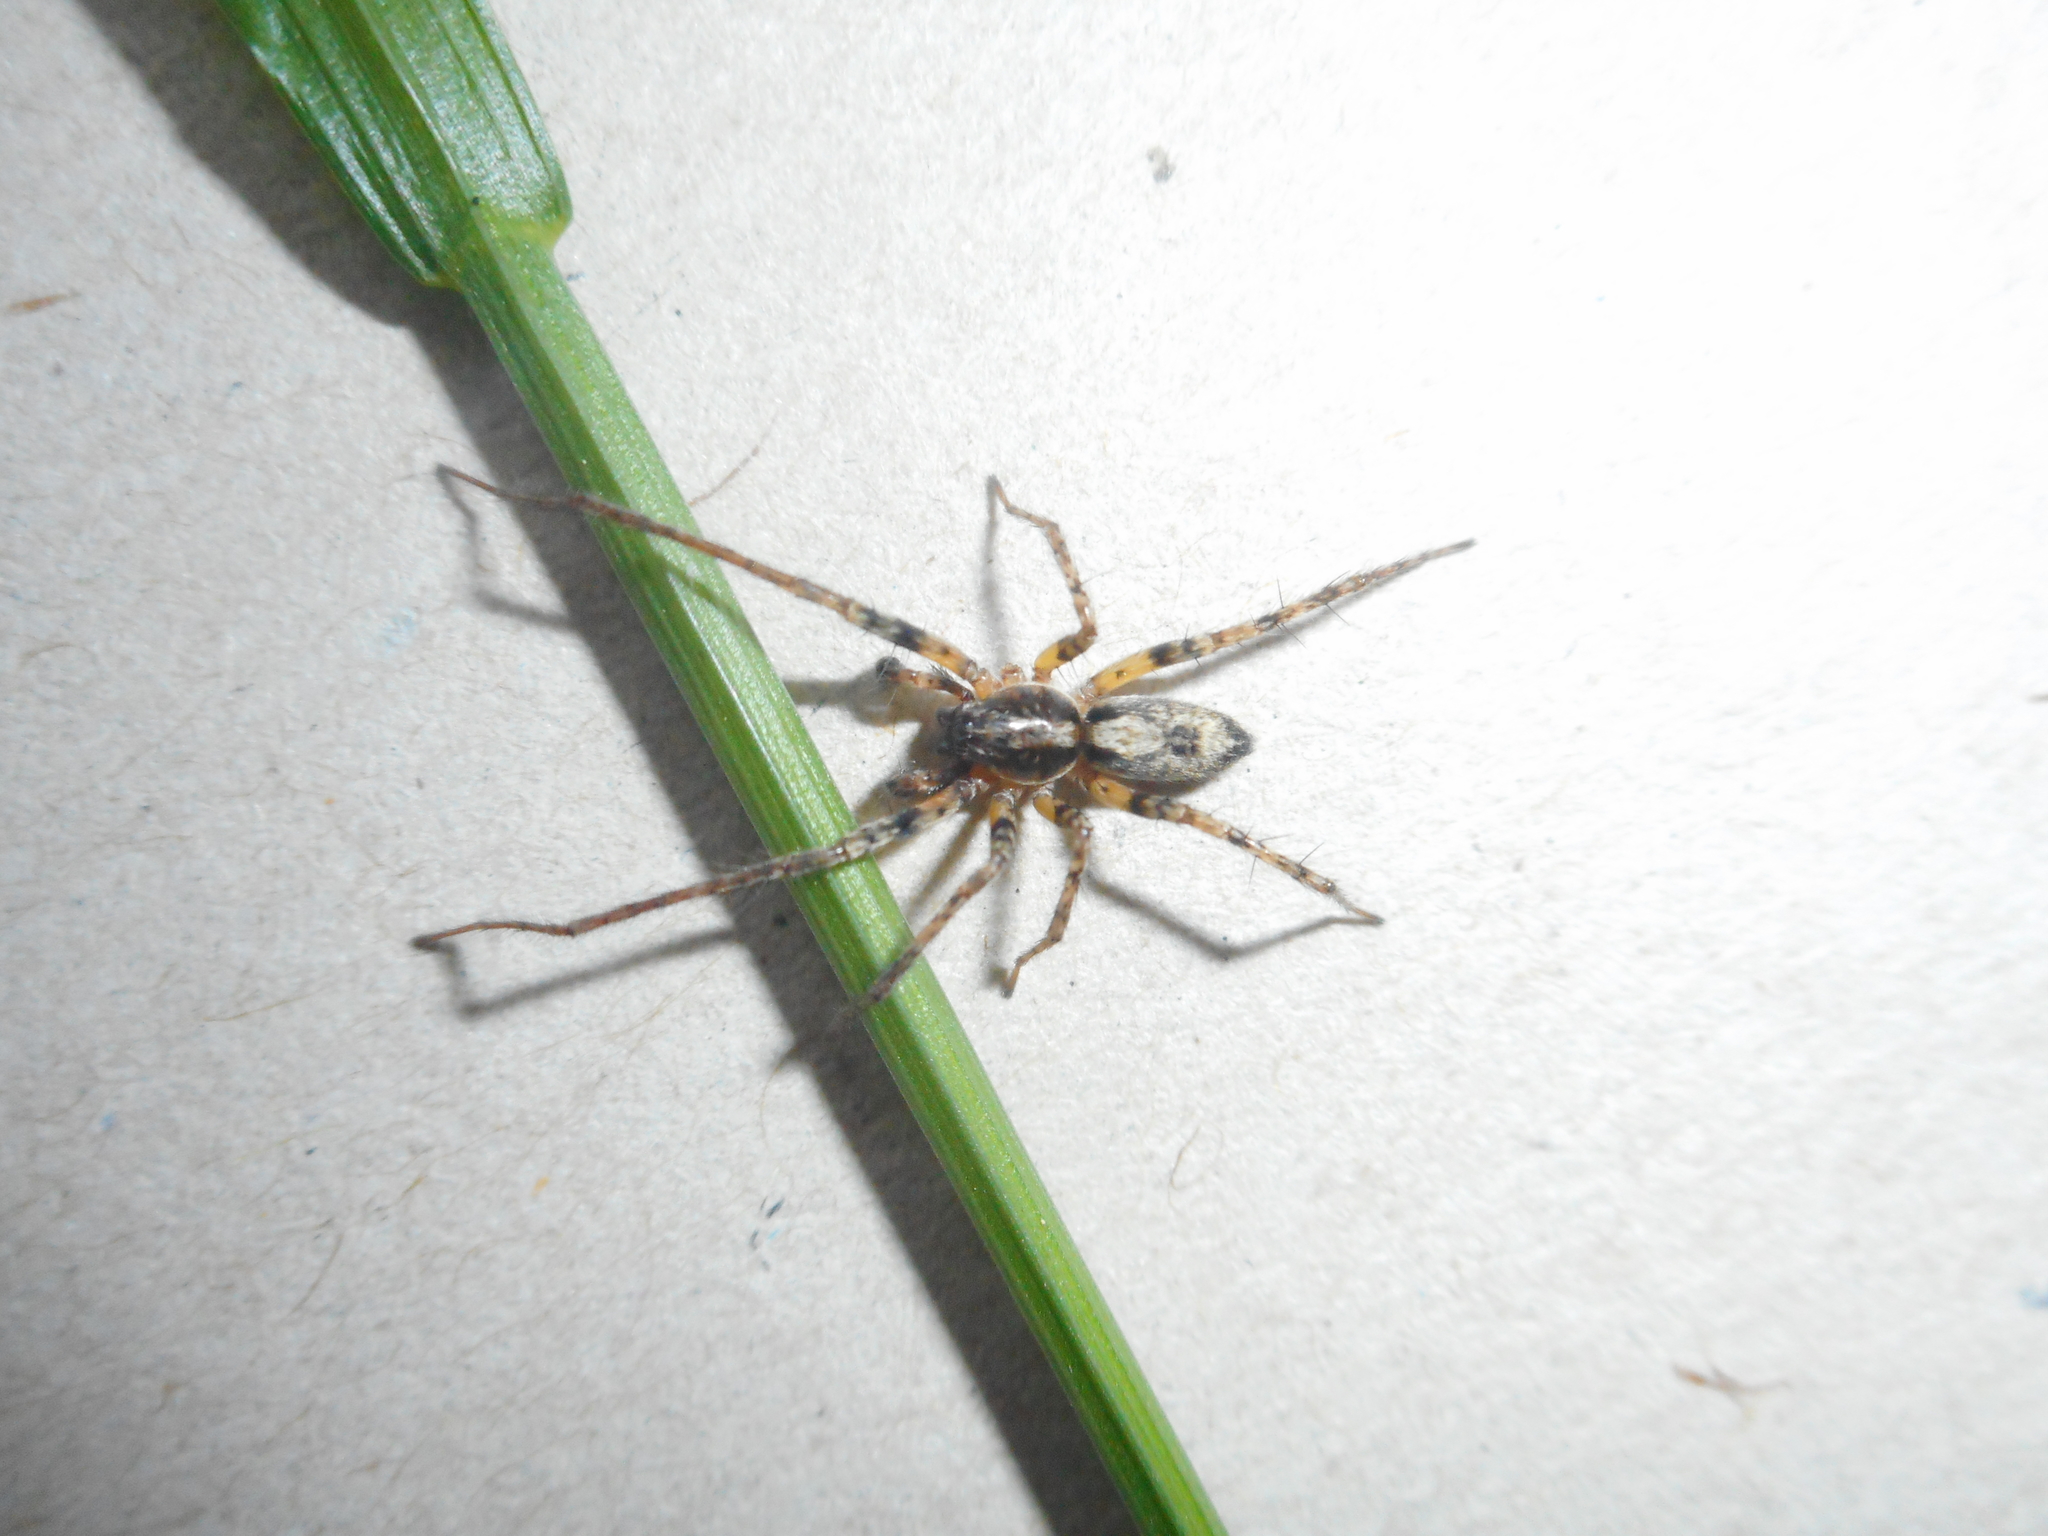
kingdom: Animalia
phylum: Arthropoda
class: Arachnida
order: Araneae
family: Anyphaenidae
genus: Anyphaena
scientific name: Anyphaena accentuata
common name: Buzzing spider
